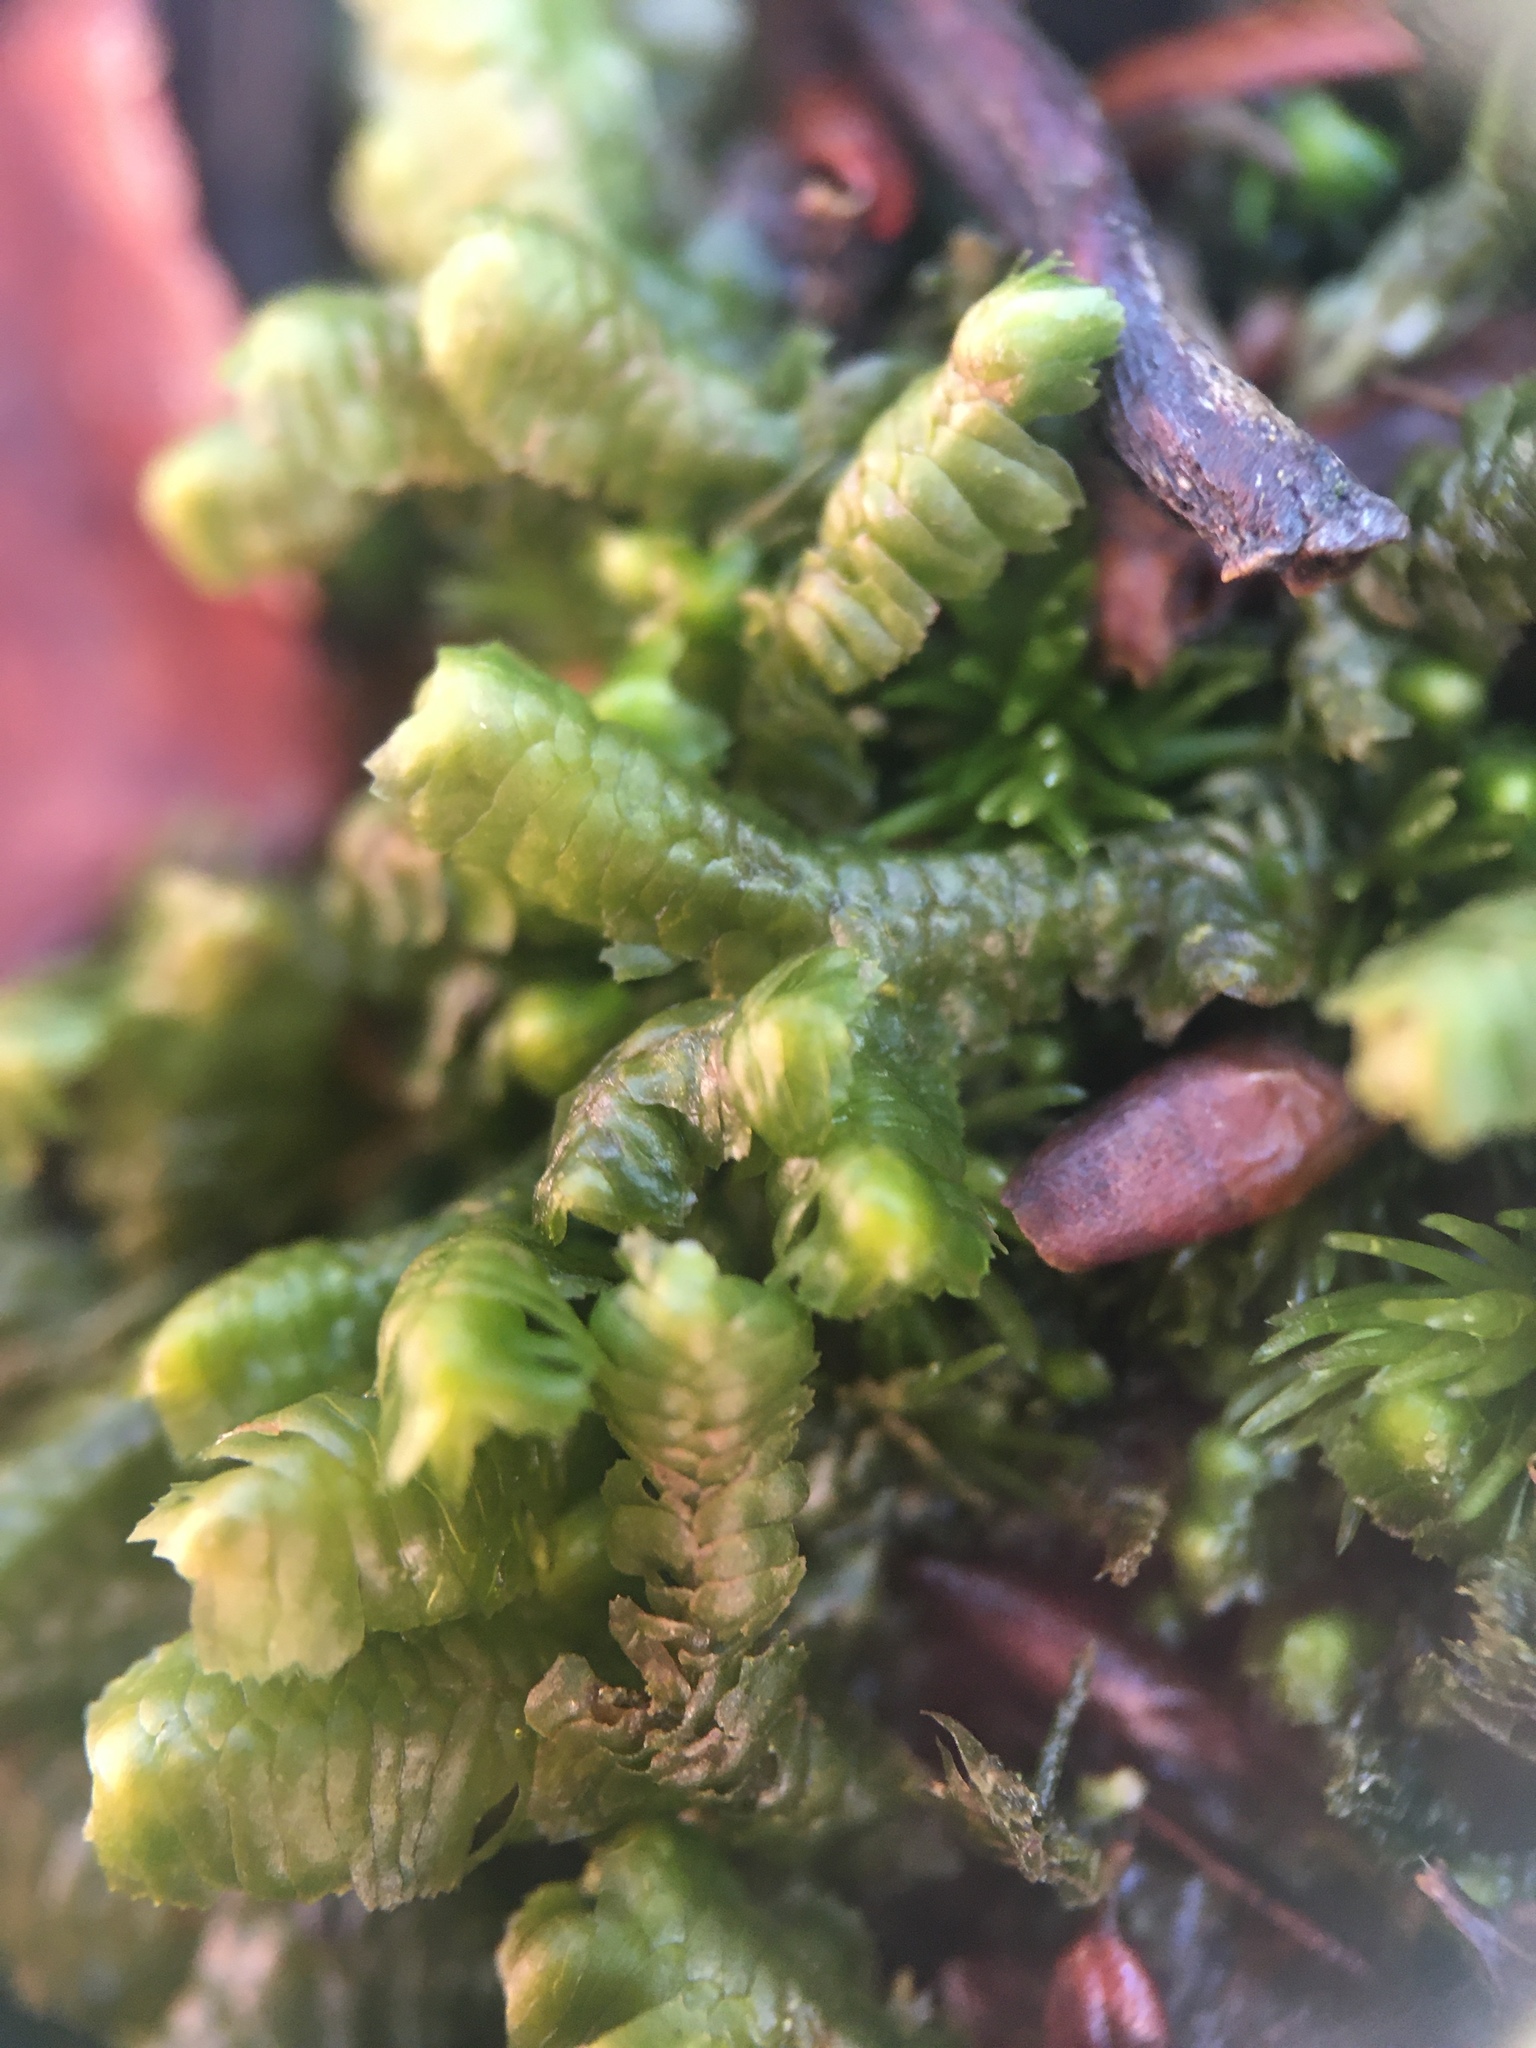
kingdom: Plantae
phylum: Marchantiophyta
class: Jungermanniopsida
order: Jungermanniales
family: Lepidoziaceae
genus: Bazzania
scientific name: Bazzania trilobata
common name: Three-lobed whipwort
